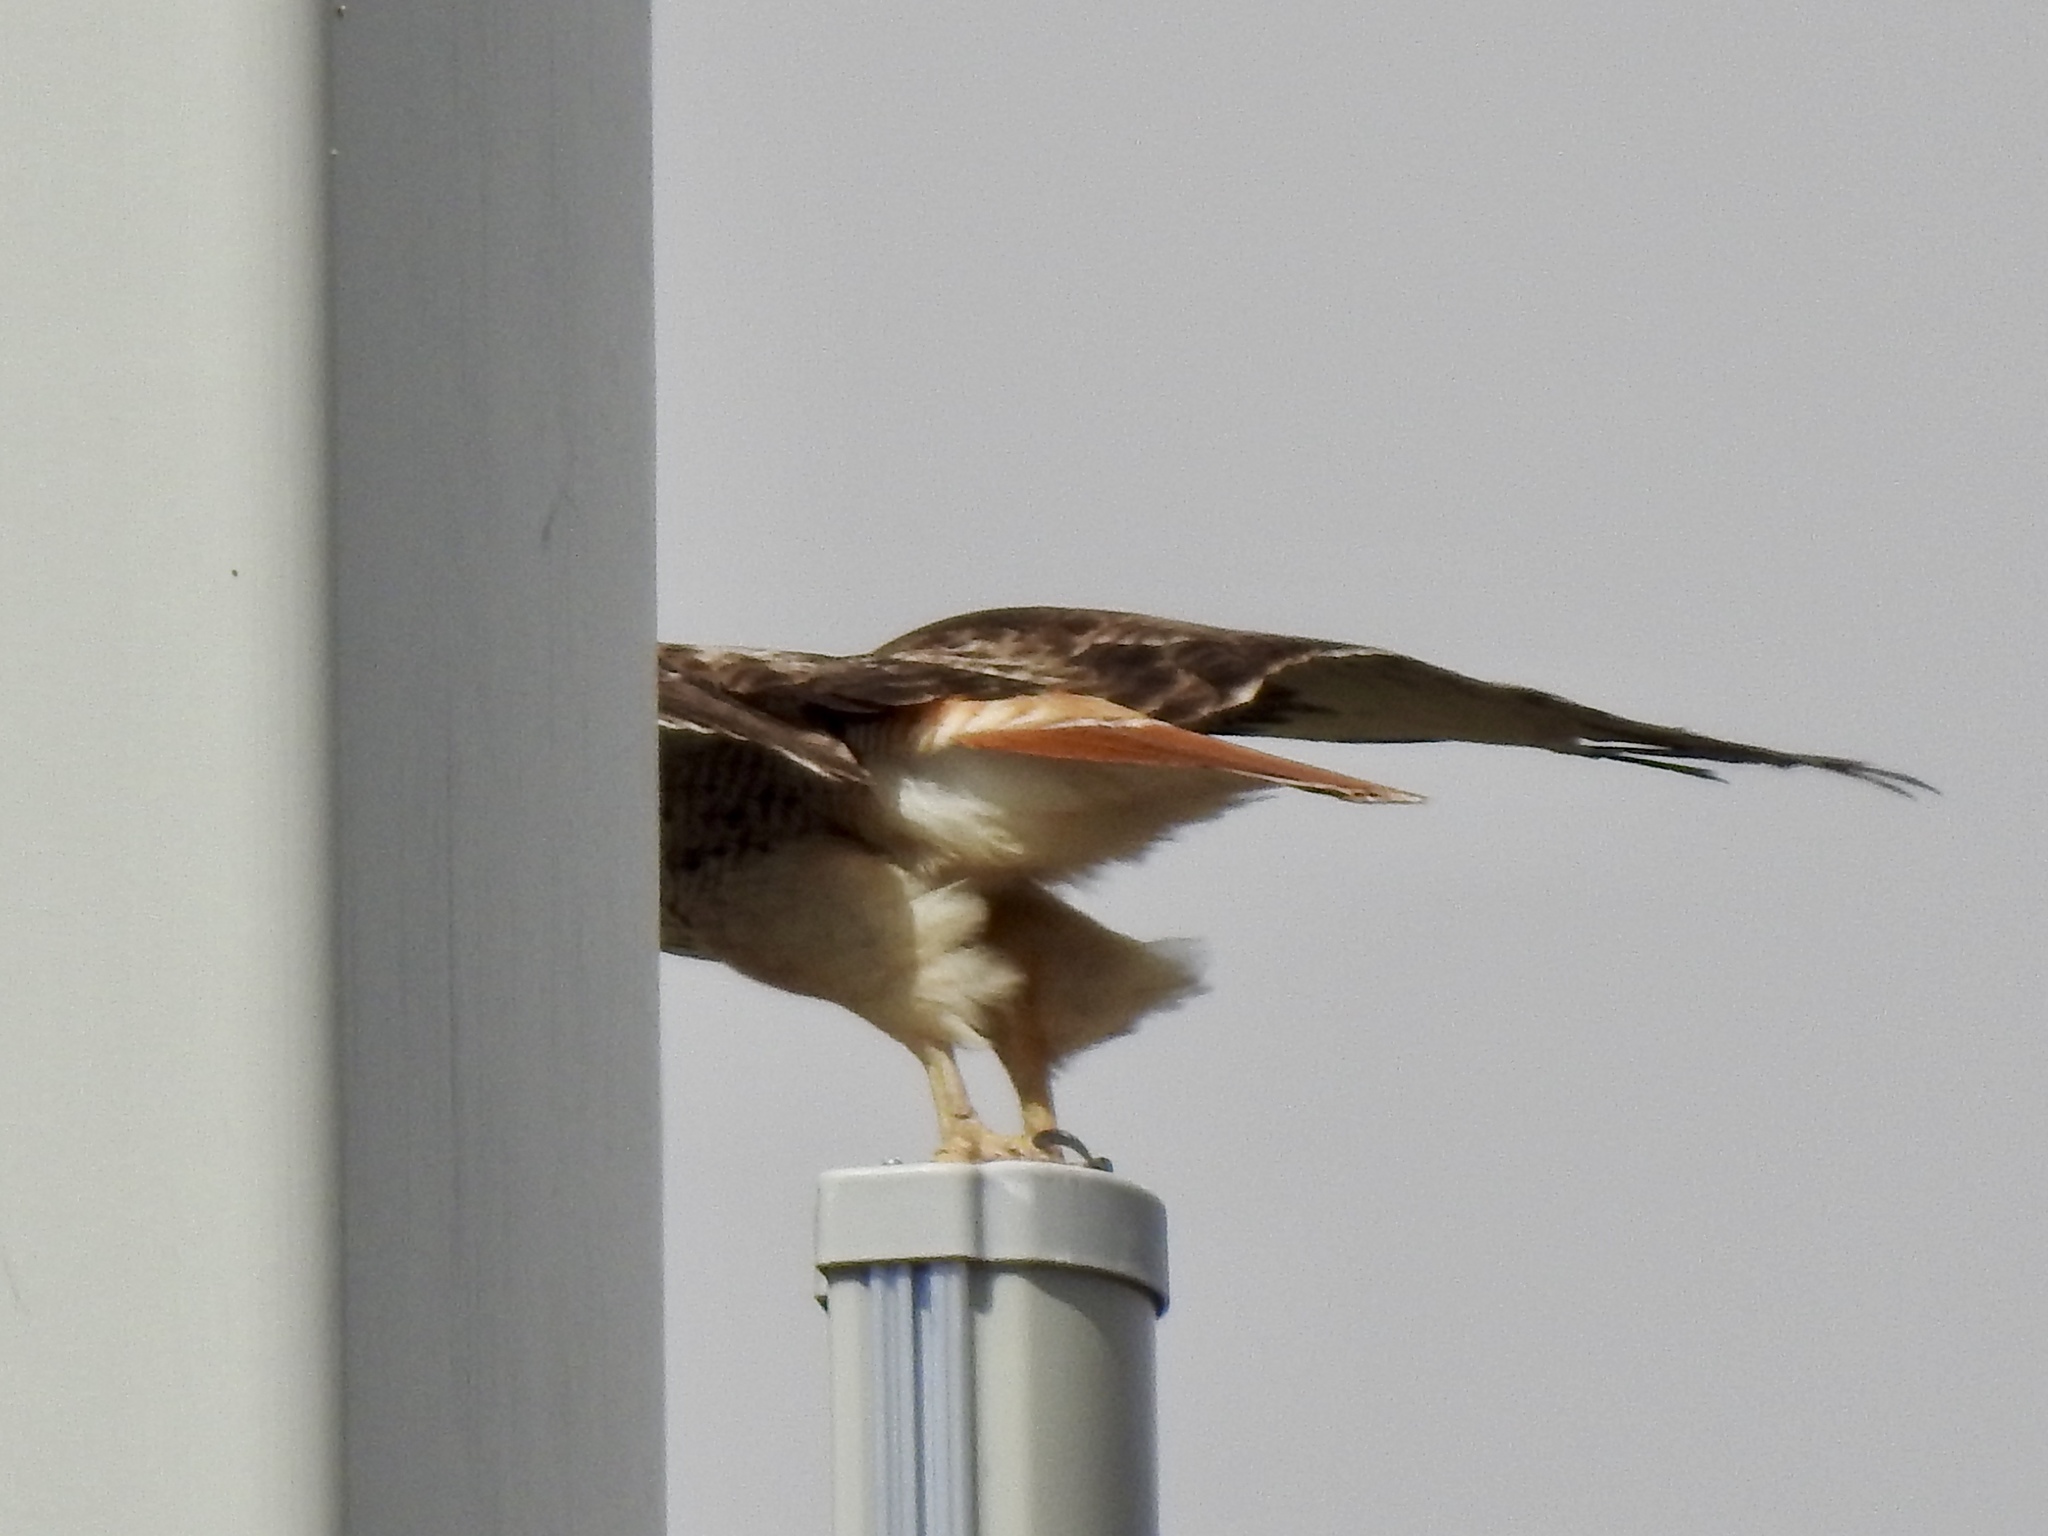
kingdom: Animalia
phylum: Chordata
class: Aves
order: Accipitriformes
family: Accipitridae
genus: Buteo
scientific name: Buteo jamaicensis
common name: Red-tailed hawk
